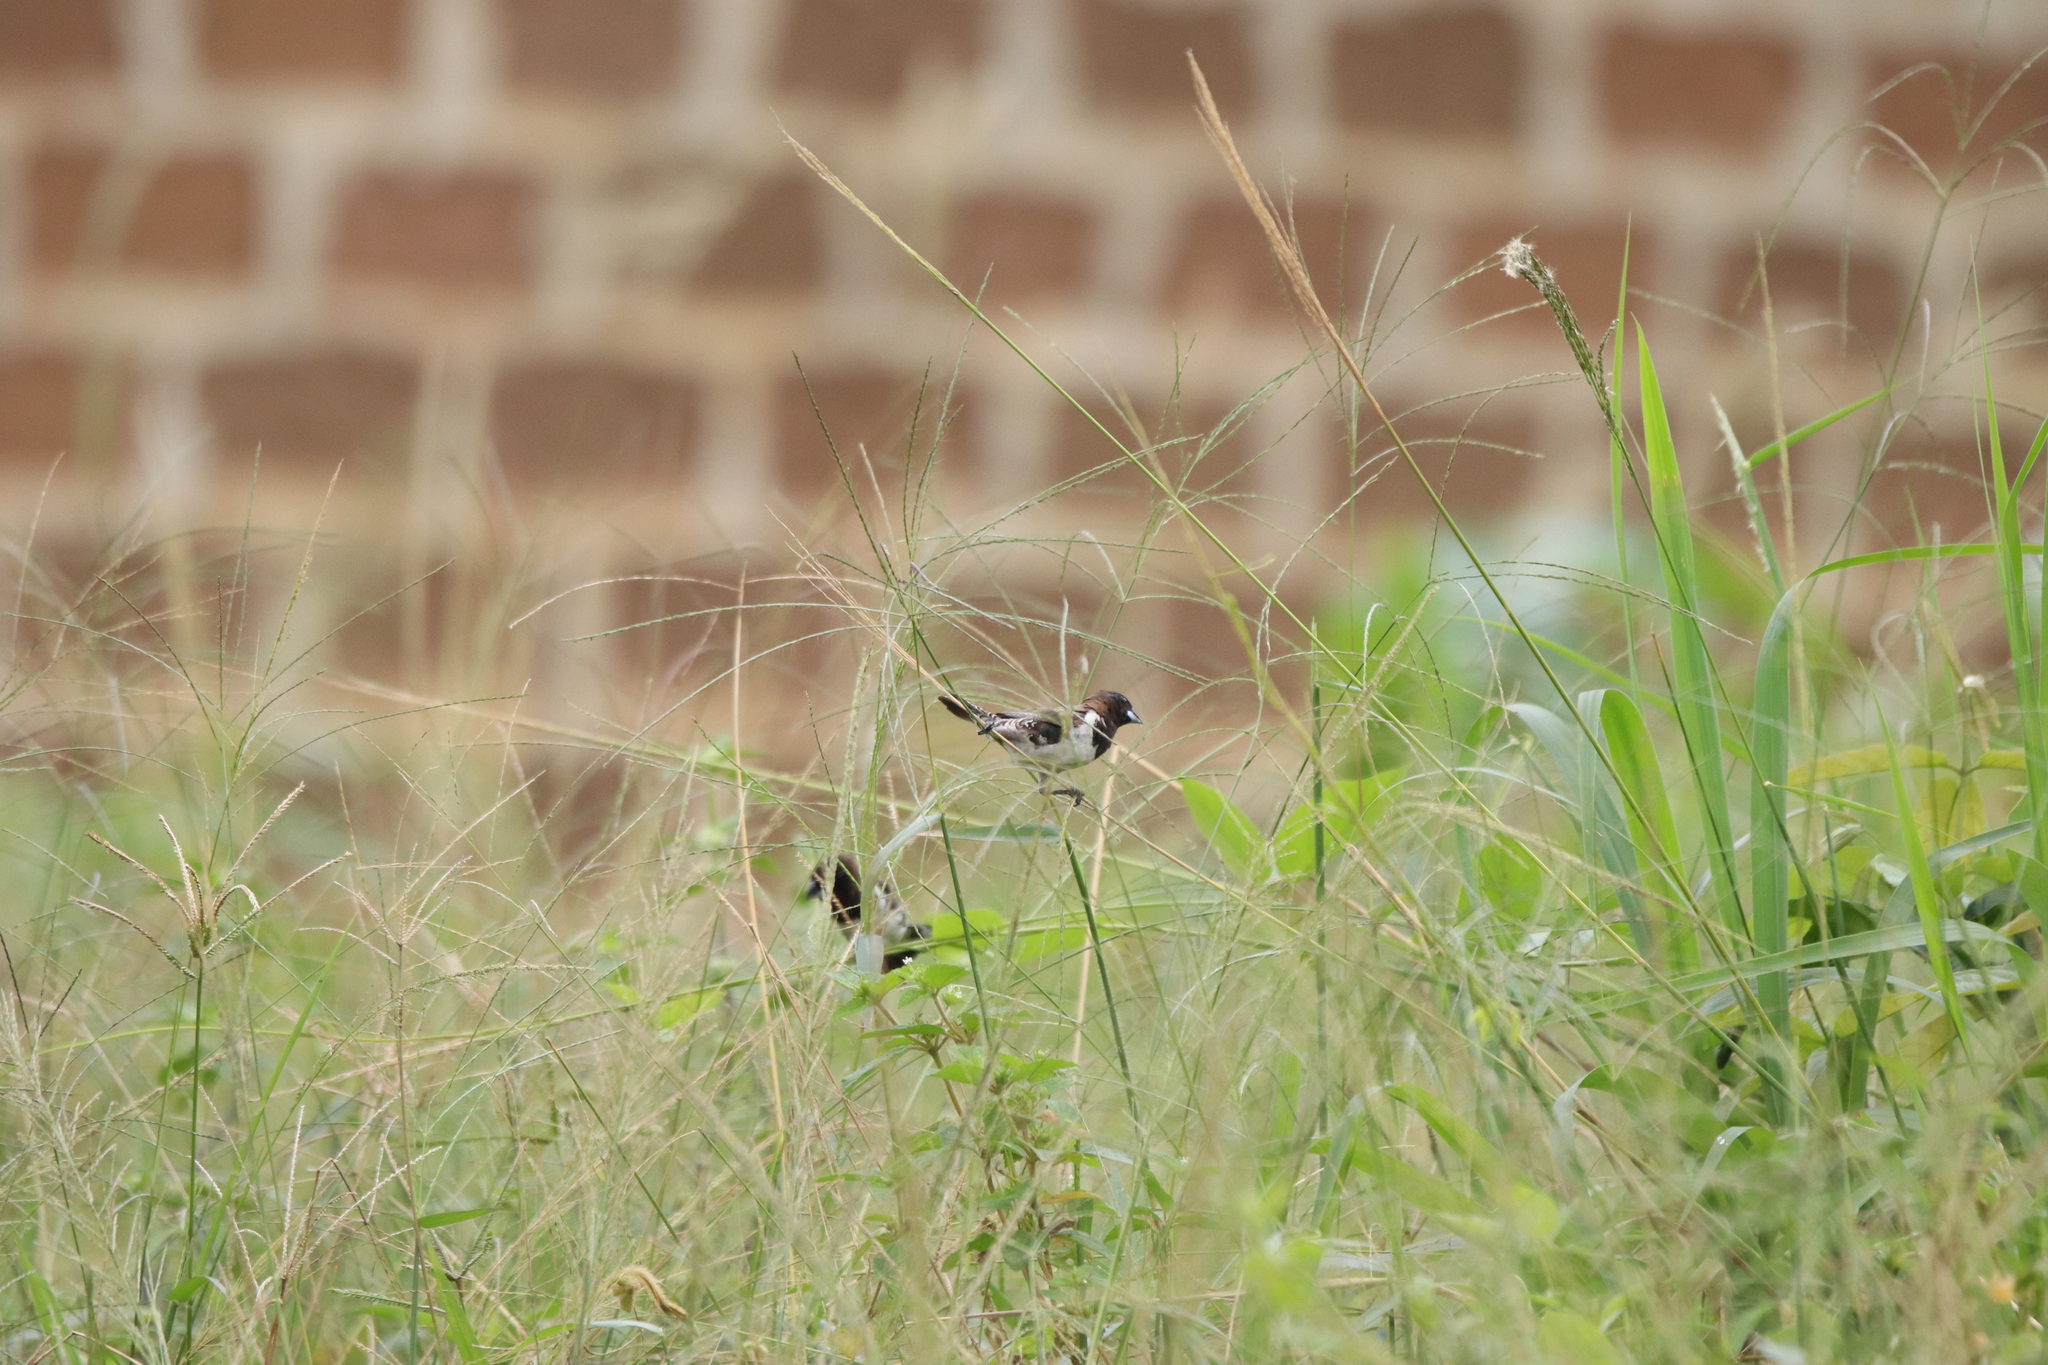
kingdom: Animalia
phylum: Chordata
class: Aves
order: Passeriformes
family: Estrildidae
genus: Lonchura
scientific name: Lonchura cucullata
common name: Bronze mannikin
